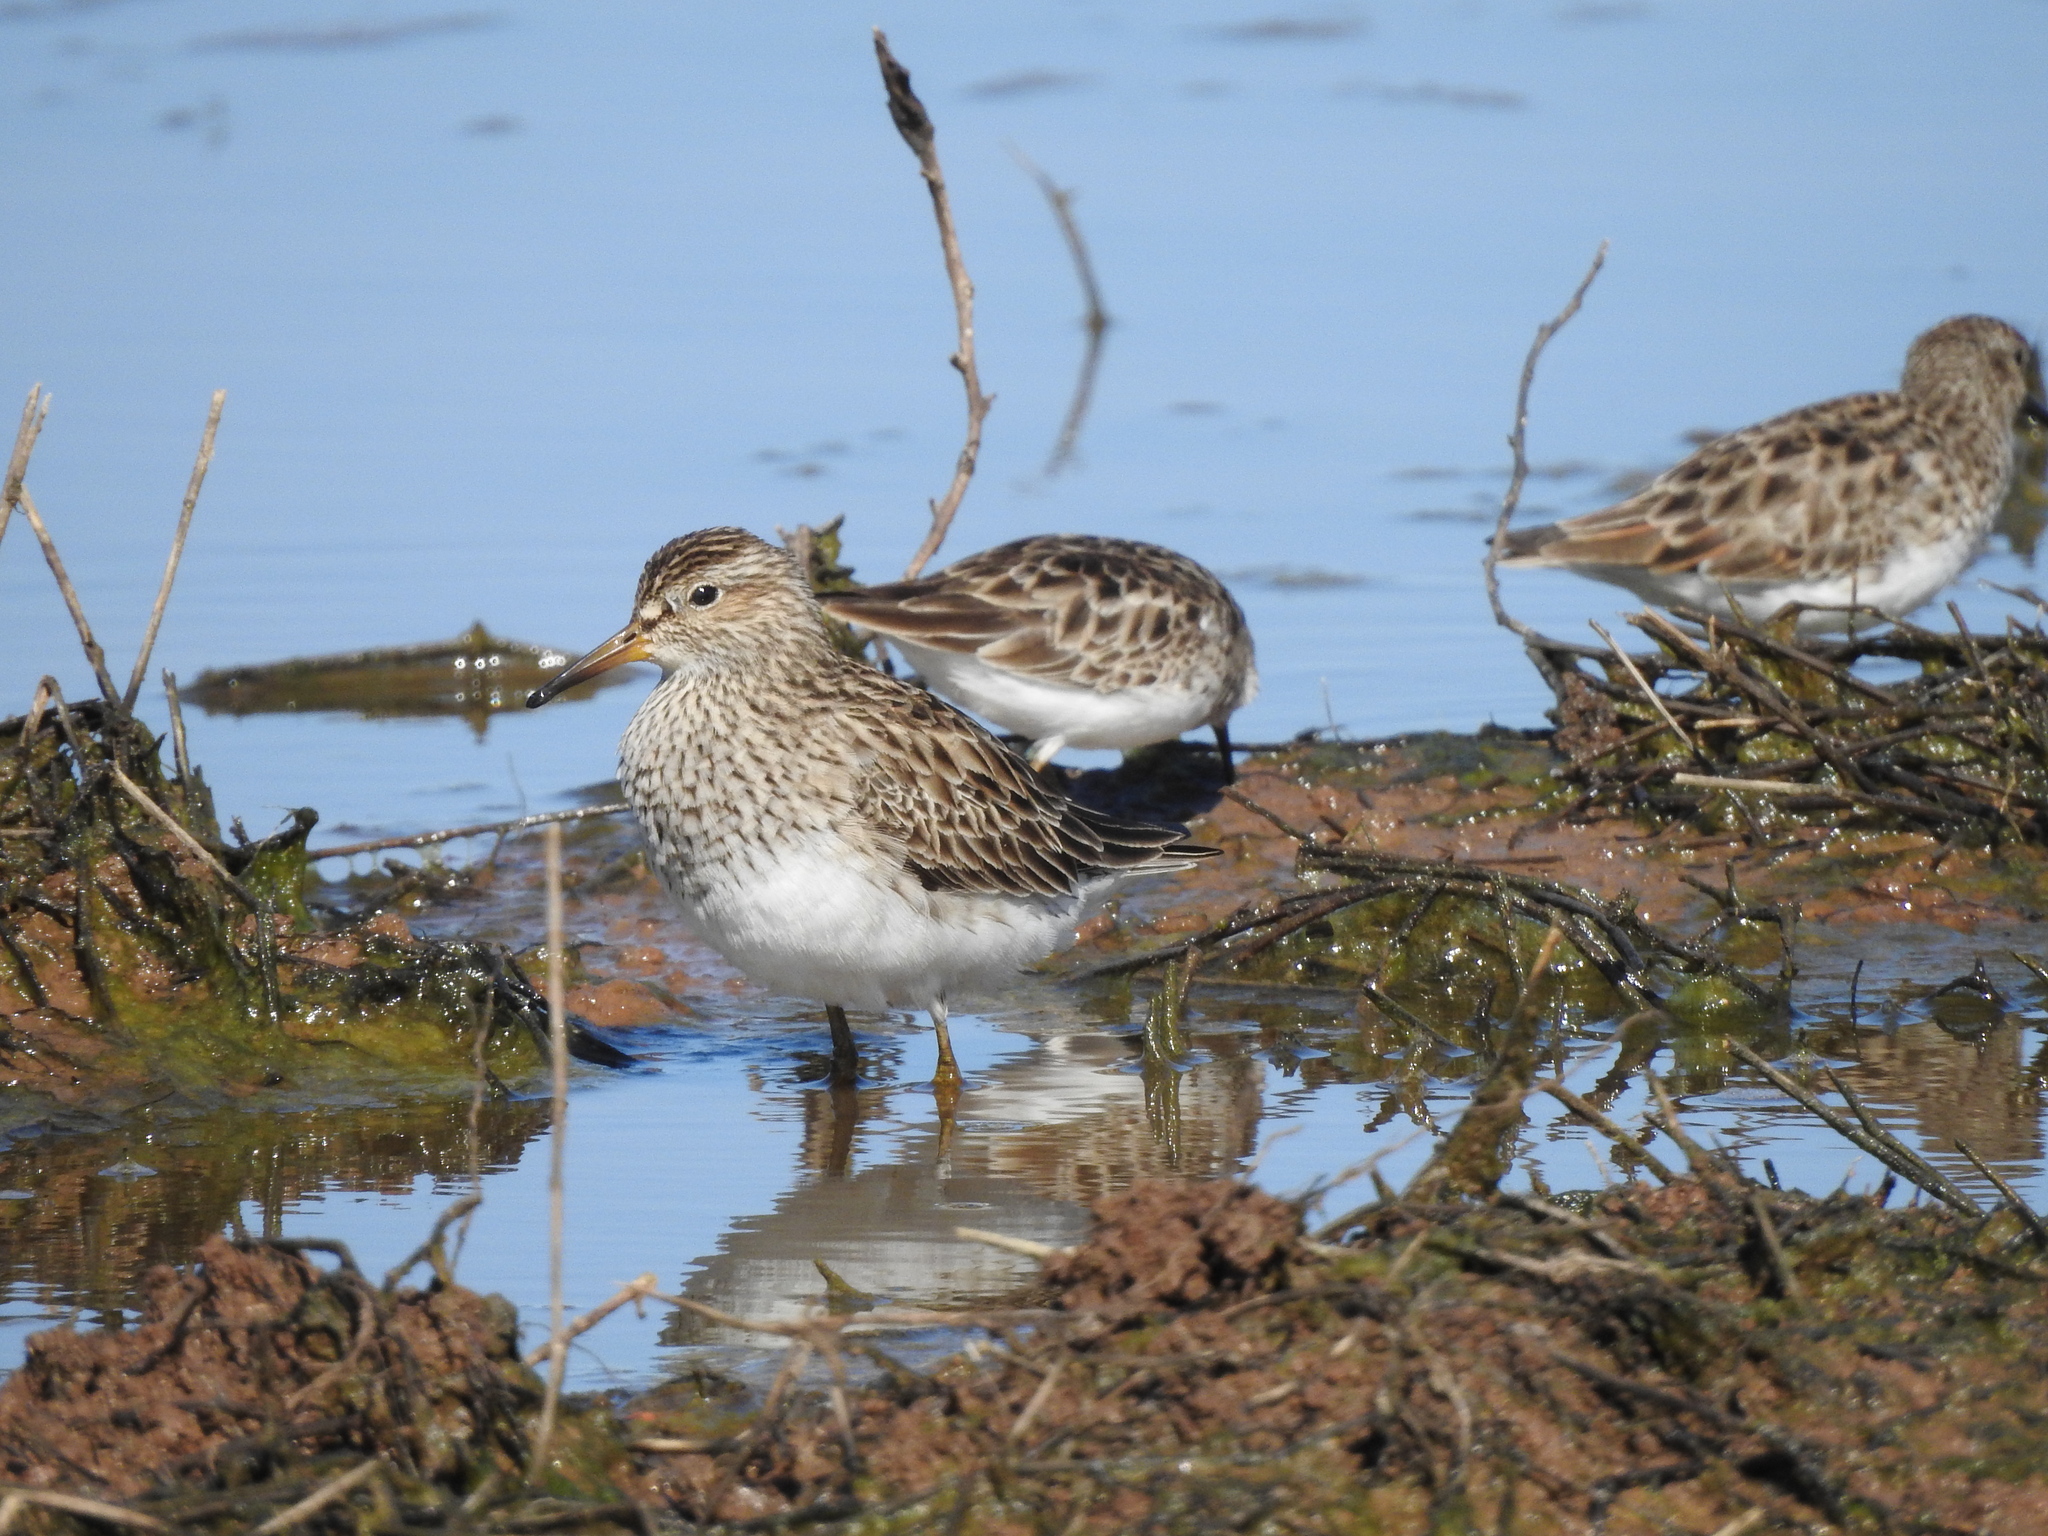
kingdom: Animalia
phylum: Chordata
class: Aves
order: Charadriiformes
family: Scolopacidae
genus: Calidris
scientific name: Calidris melanotos
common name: Pectoral sandpiper
